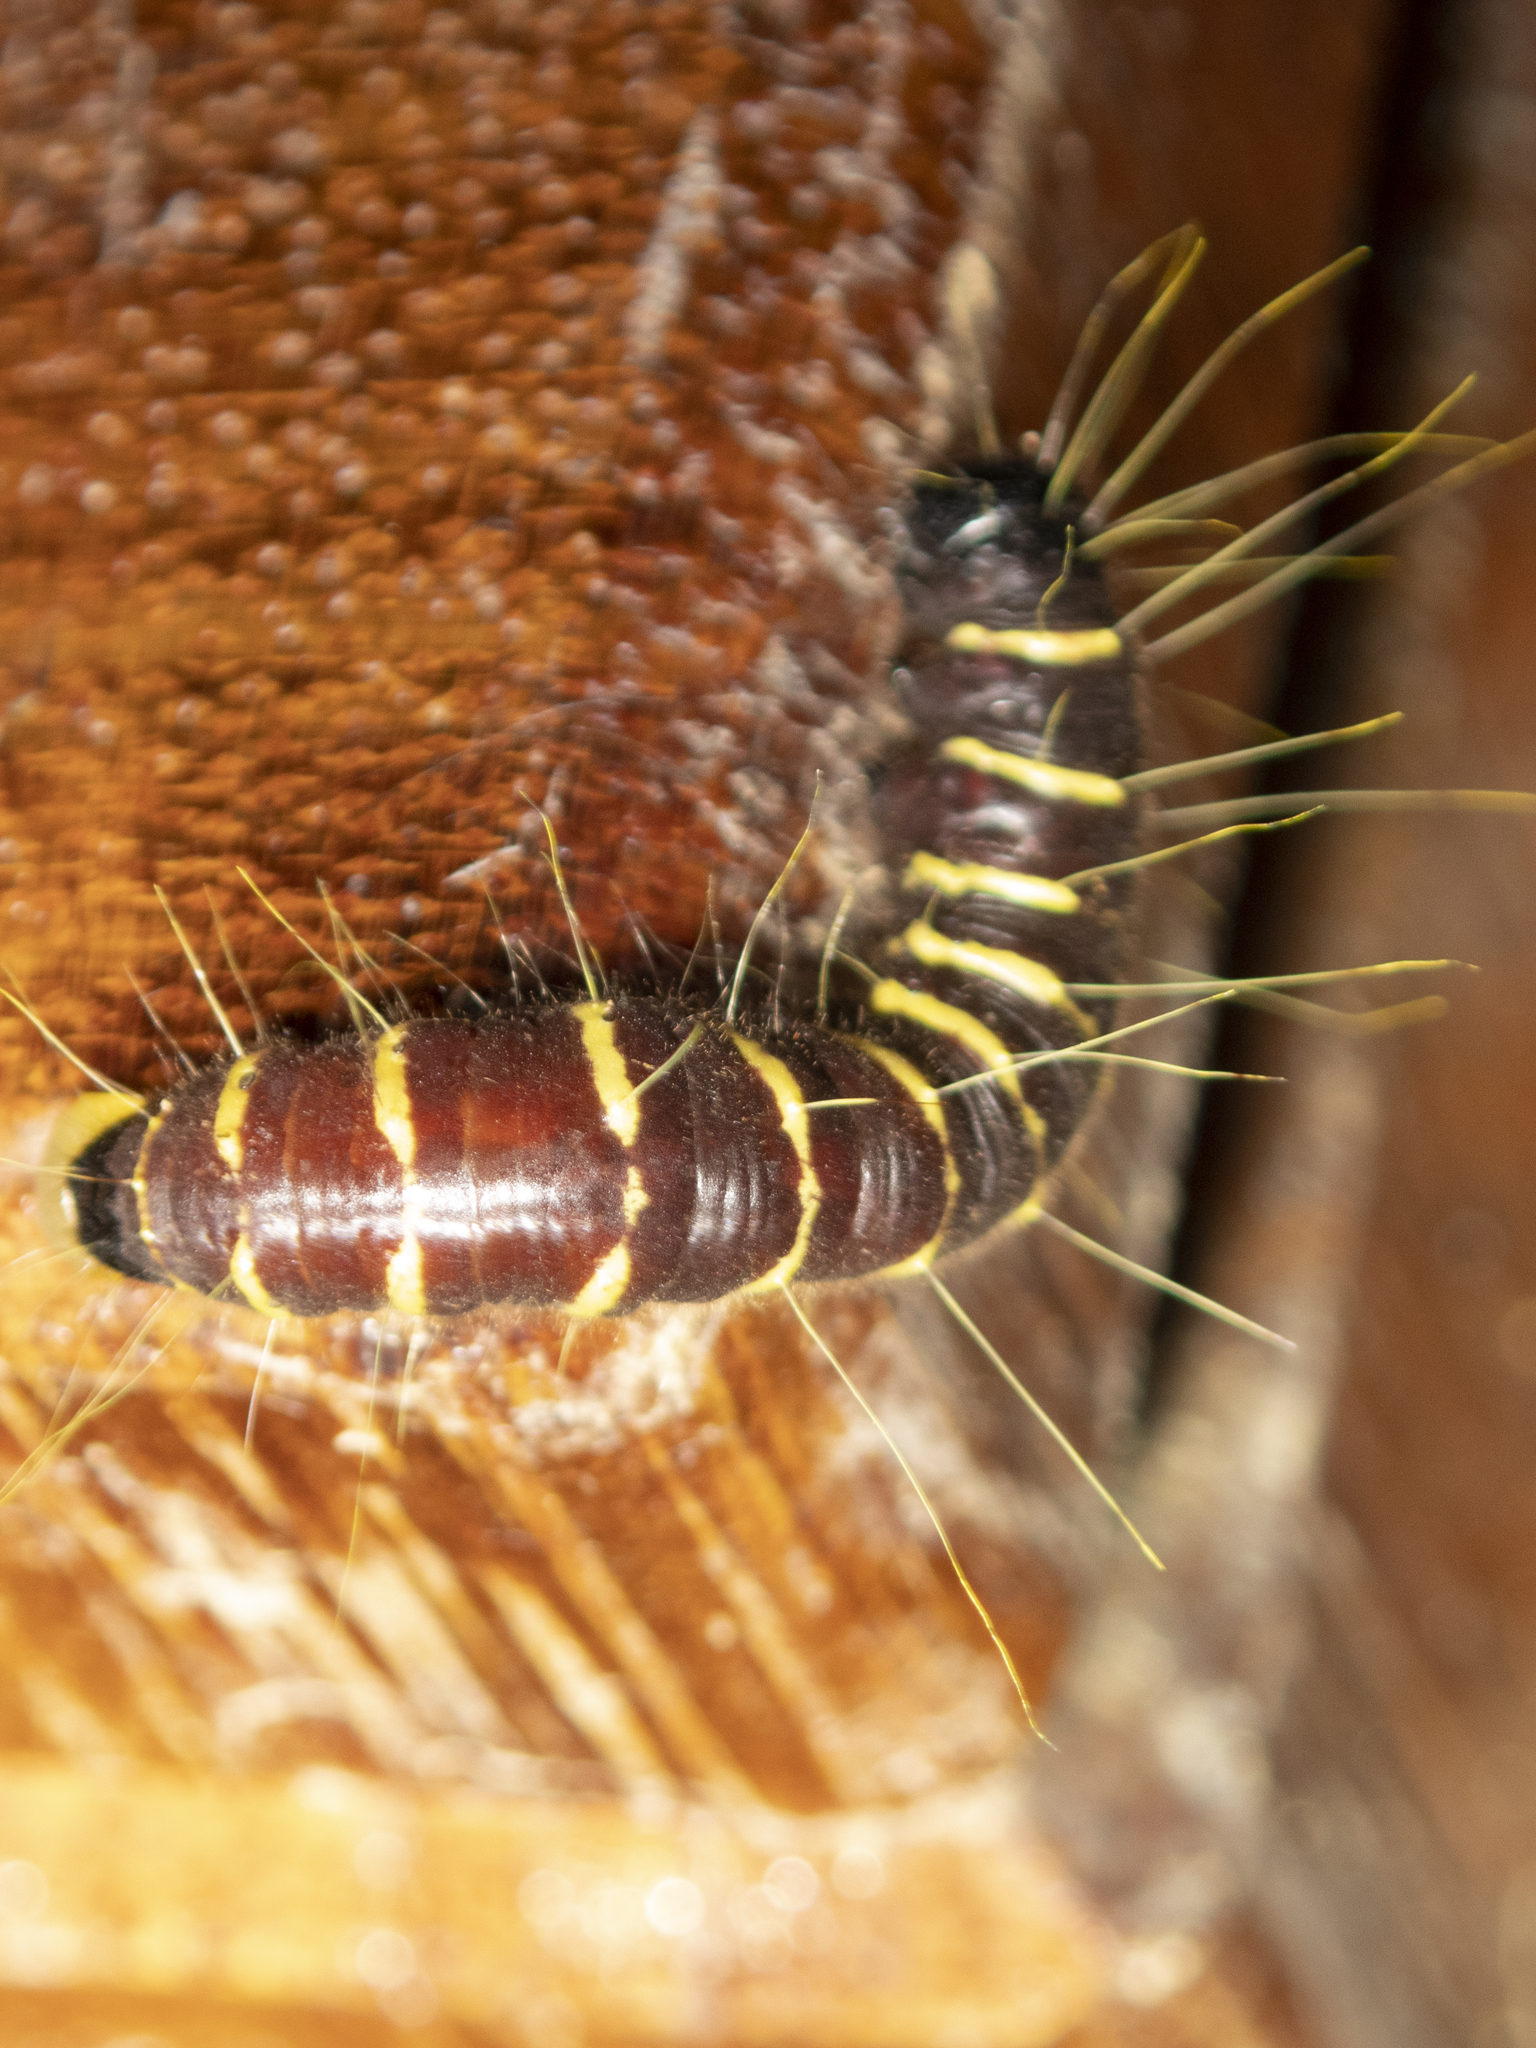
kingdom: Animalia
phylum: Arthropoda
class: Insecta
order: Lepidoptera
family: Pieridae
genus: Delias
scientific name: Delias pasithoe
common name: Red-base jezebel
